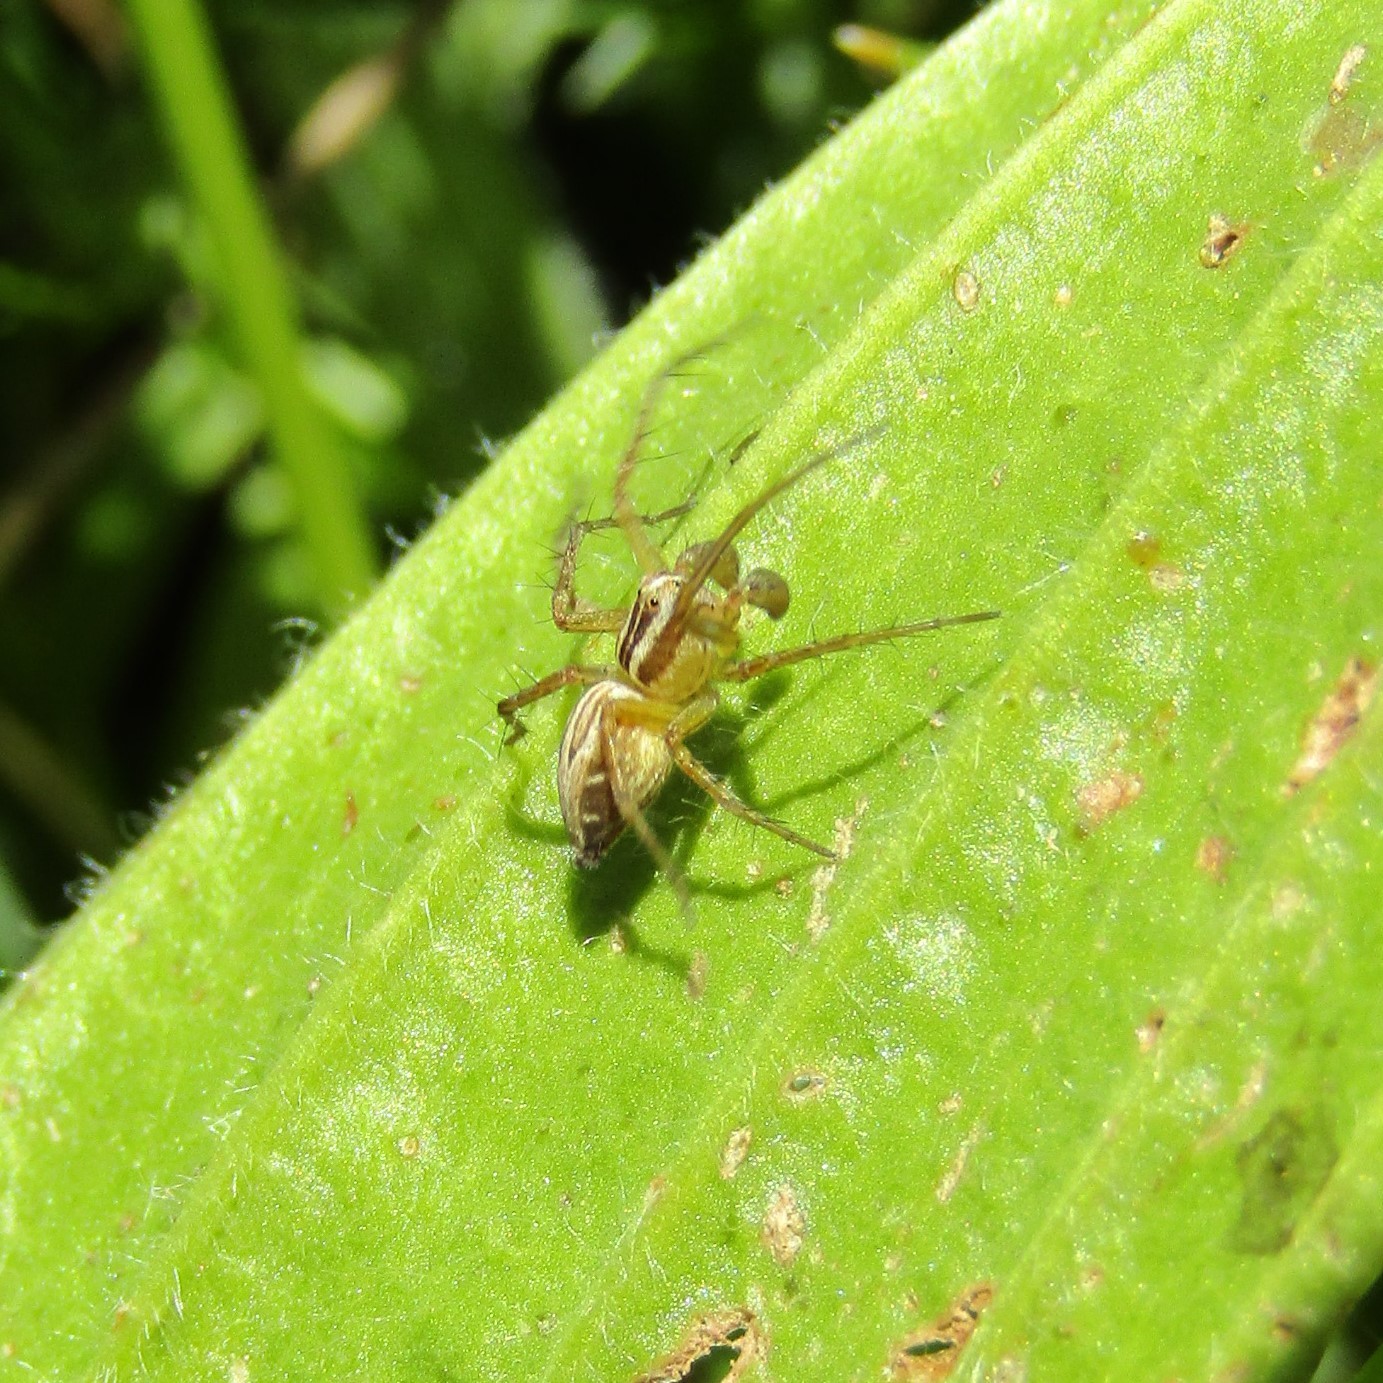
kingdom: Animalia
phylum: Arthropoda
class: Arachnida
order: Araneae
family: Oxyopidae
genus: Oxyopes
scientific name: Oxyopes gracilipes
